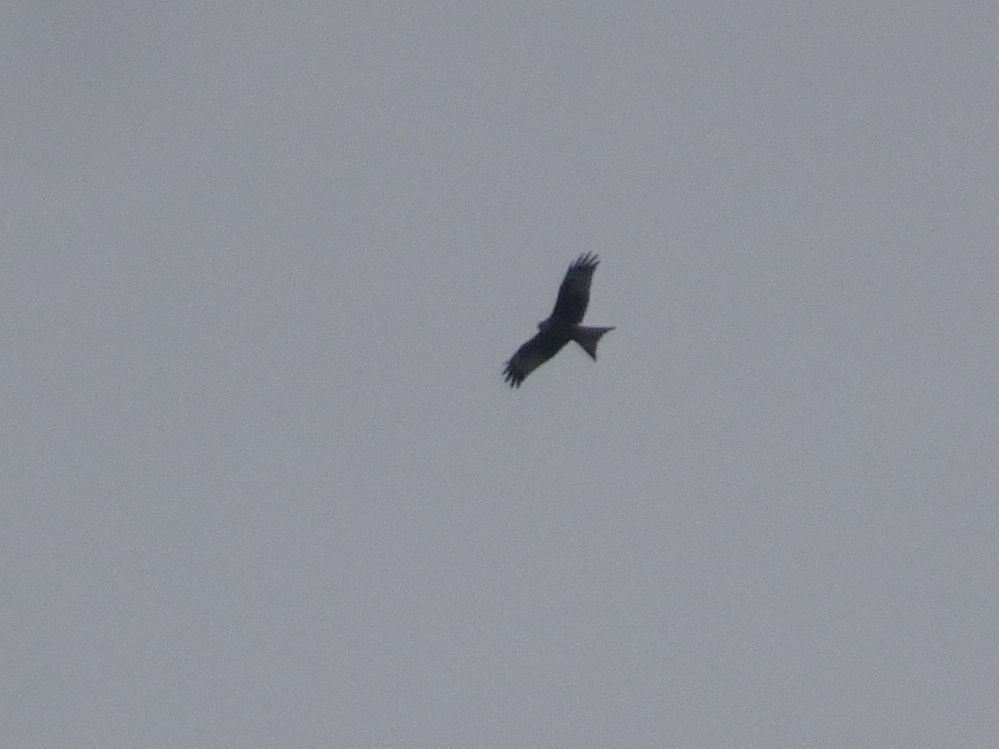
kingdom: Animalia
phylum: Chordata
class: Aves
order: Accipitriformes
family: Accipitridae
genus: Milvus
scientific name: Milvus milvus
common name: Red kite
